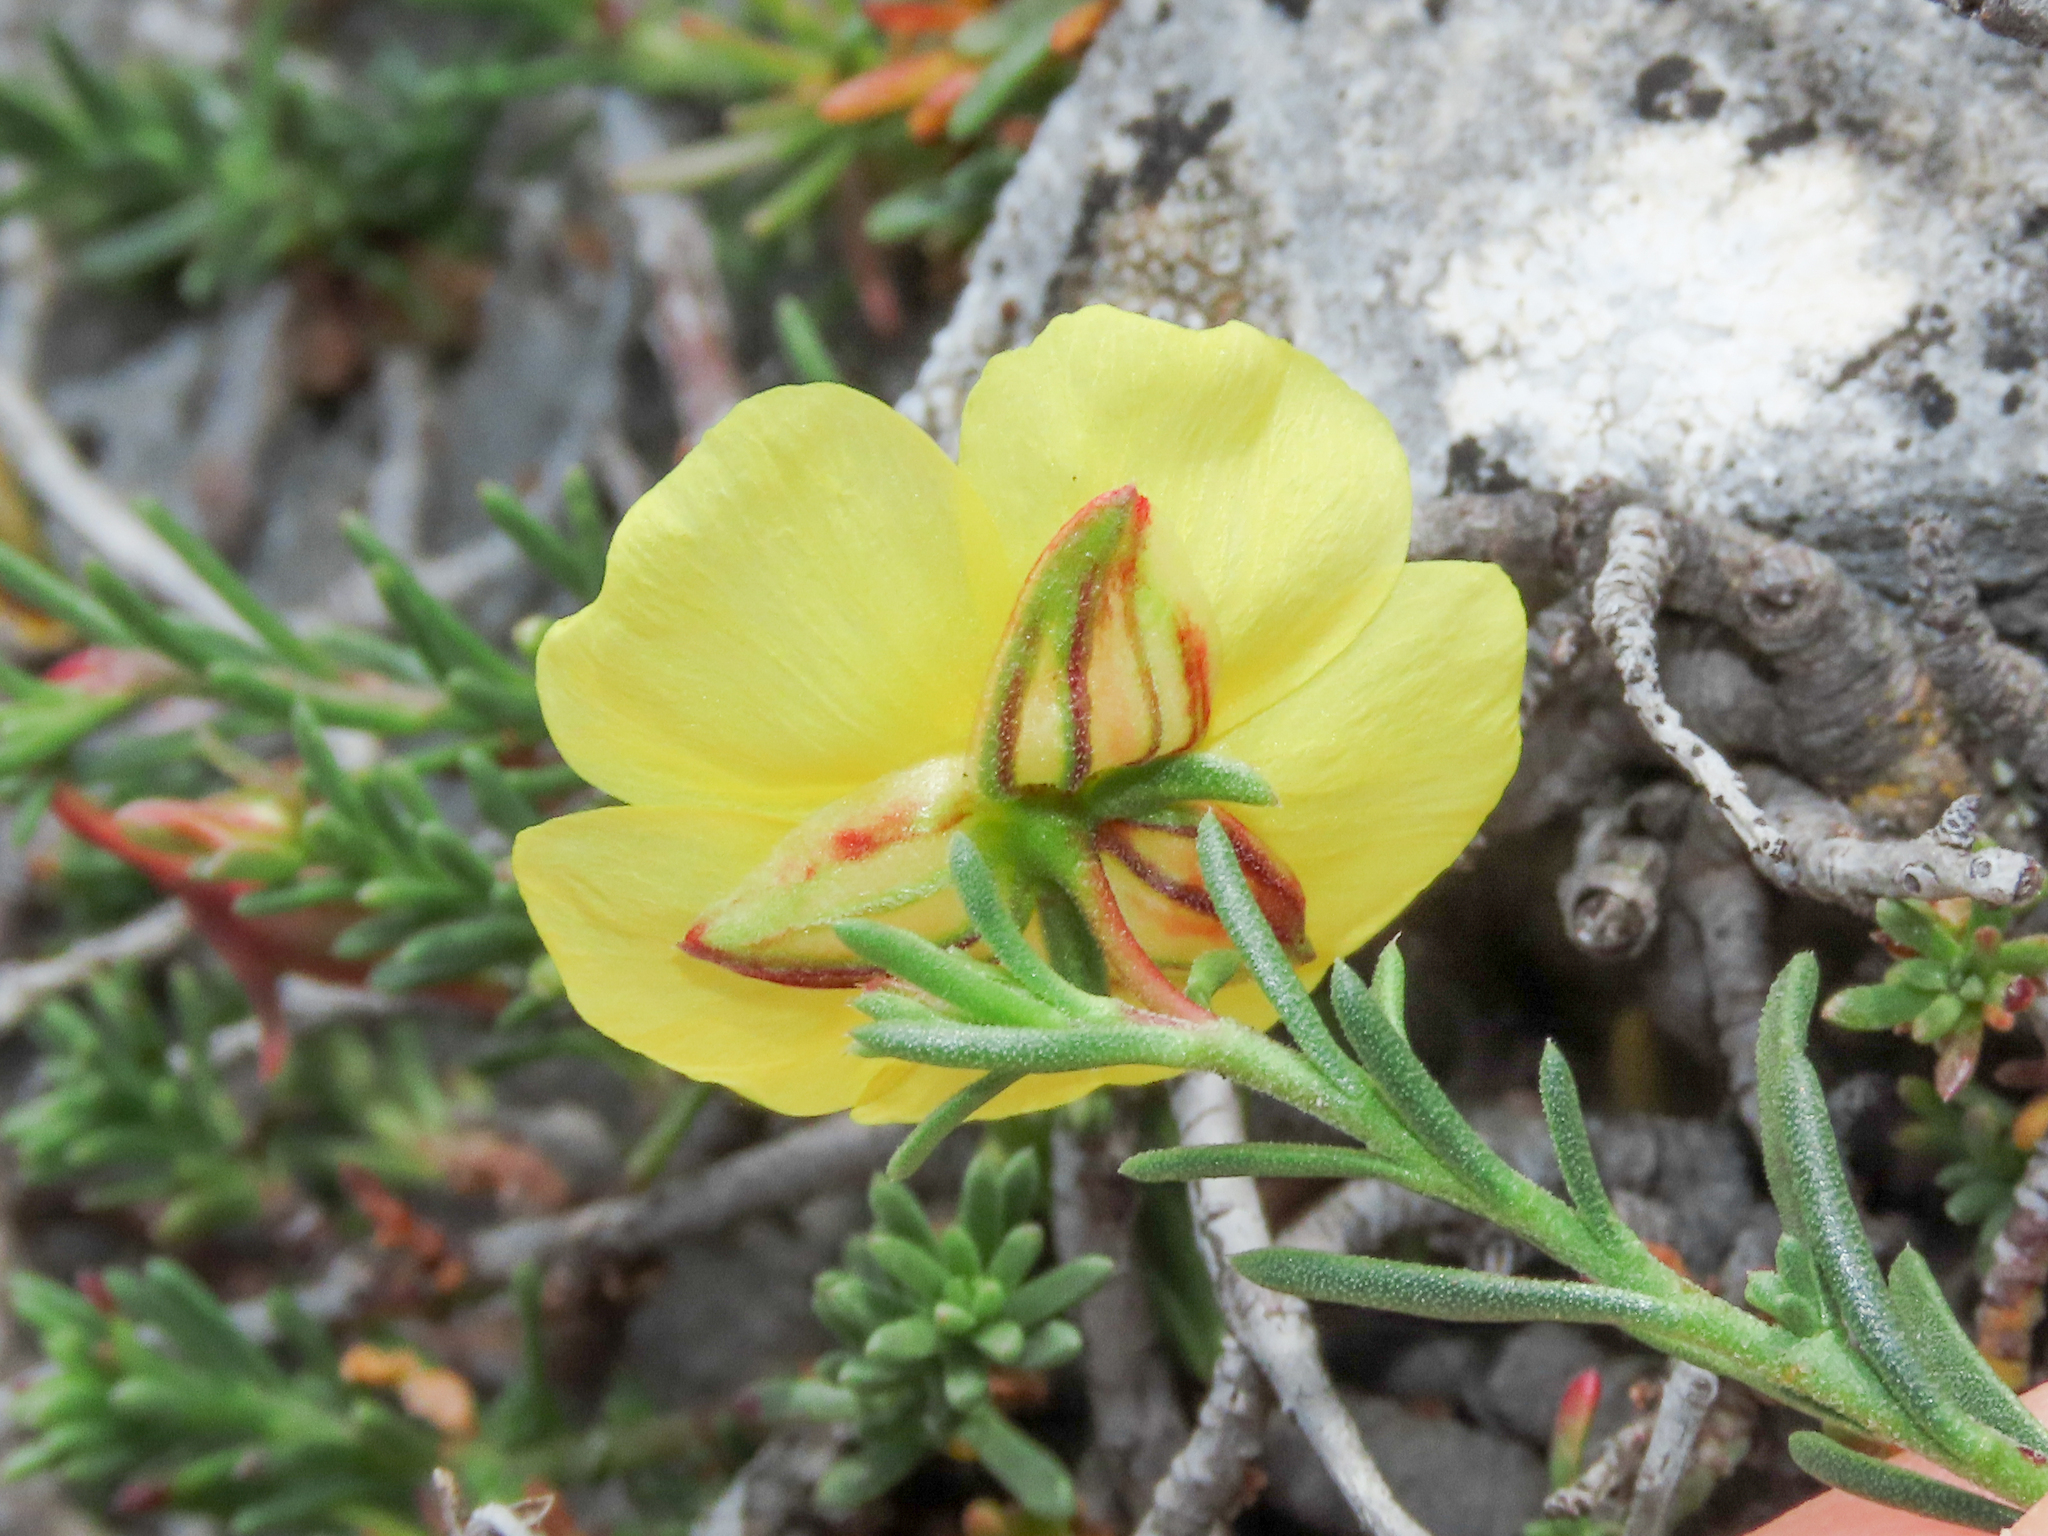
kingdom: Plantae
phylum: Tracheophyta
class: Magnoliopsida
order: Malvales
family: Cistaceae
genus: Fumana
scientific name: Fumana procumbens
